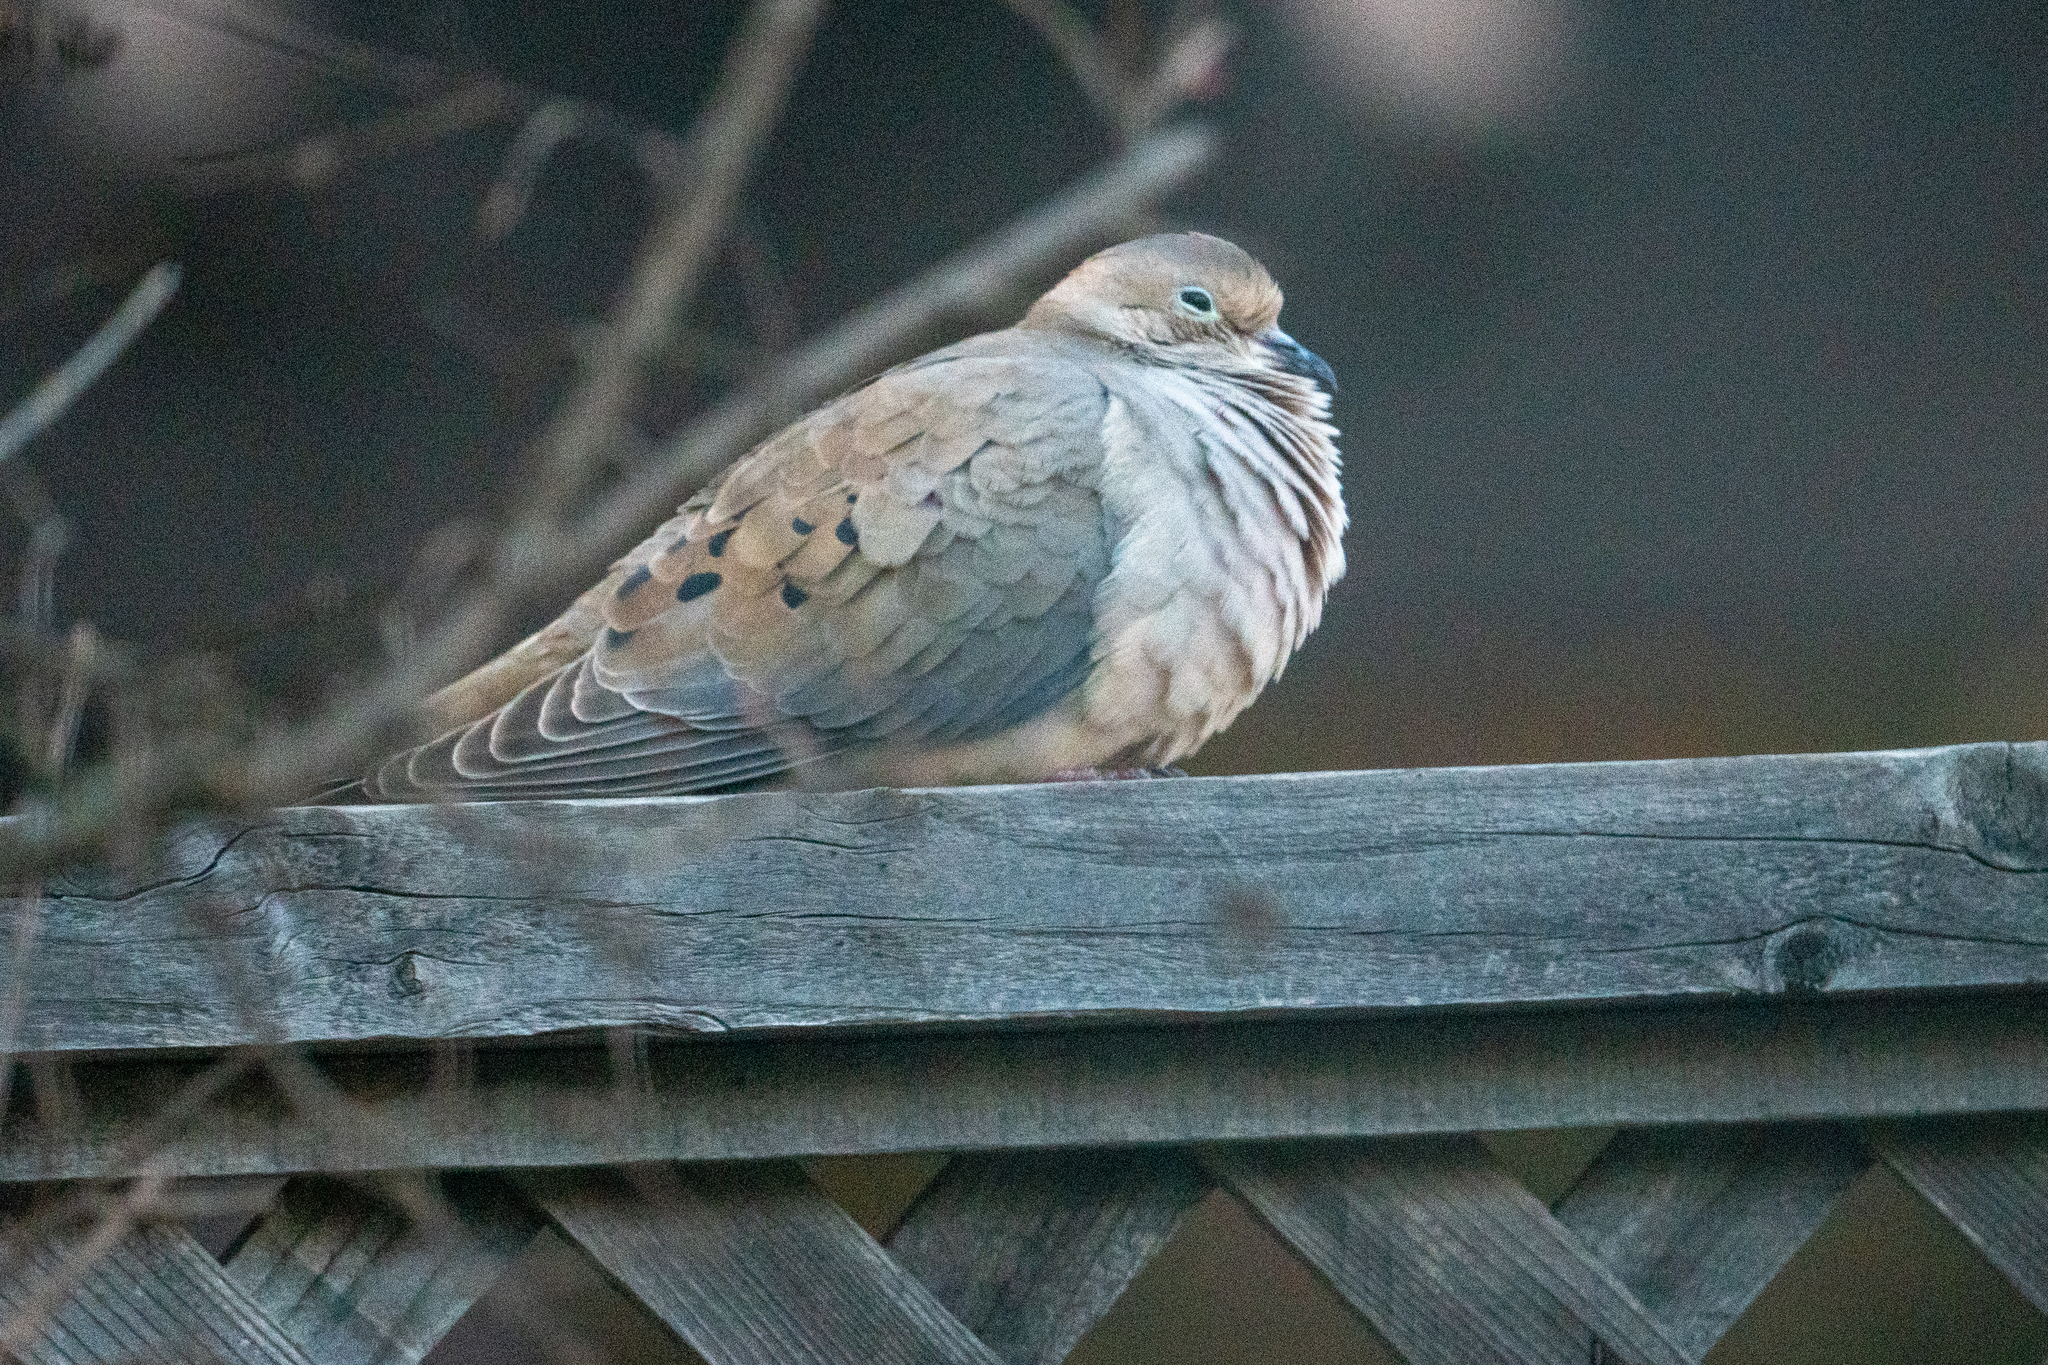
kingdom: Animalia
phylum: Chordata
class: Aves
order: Columbiformes
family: Columbidae
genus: Zenaida
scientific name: Zenaida macroura
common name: Mourning dove
